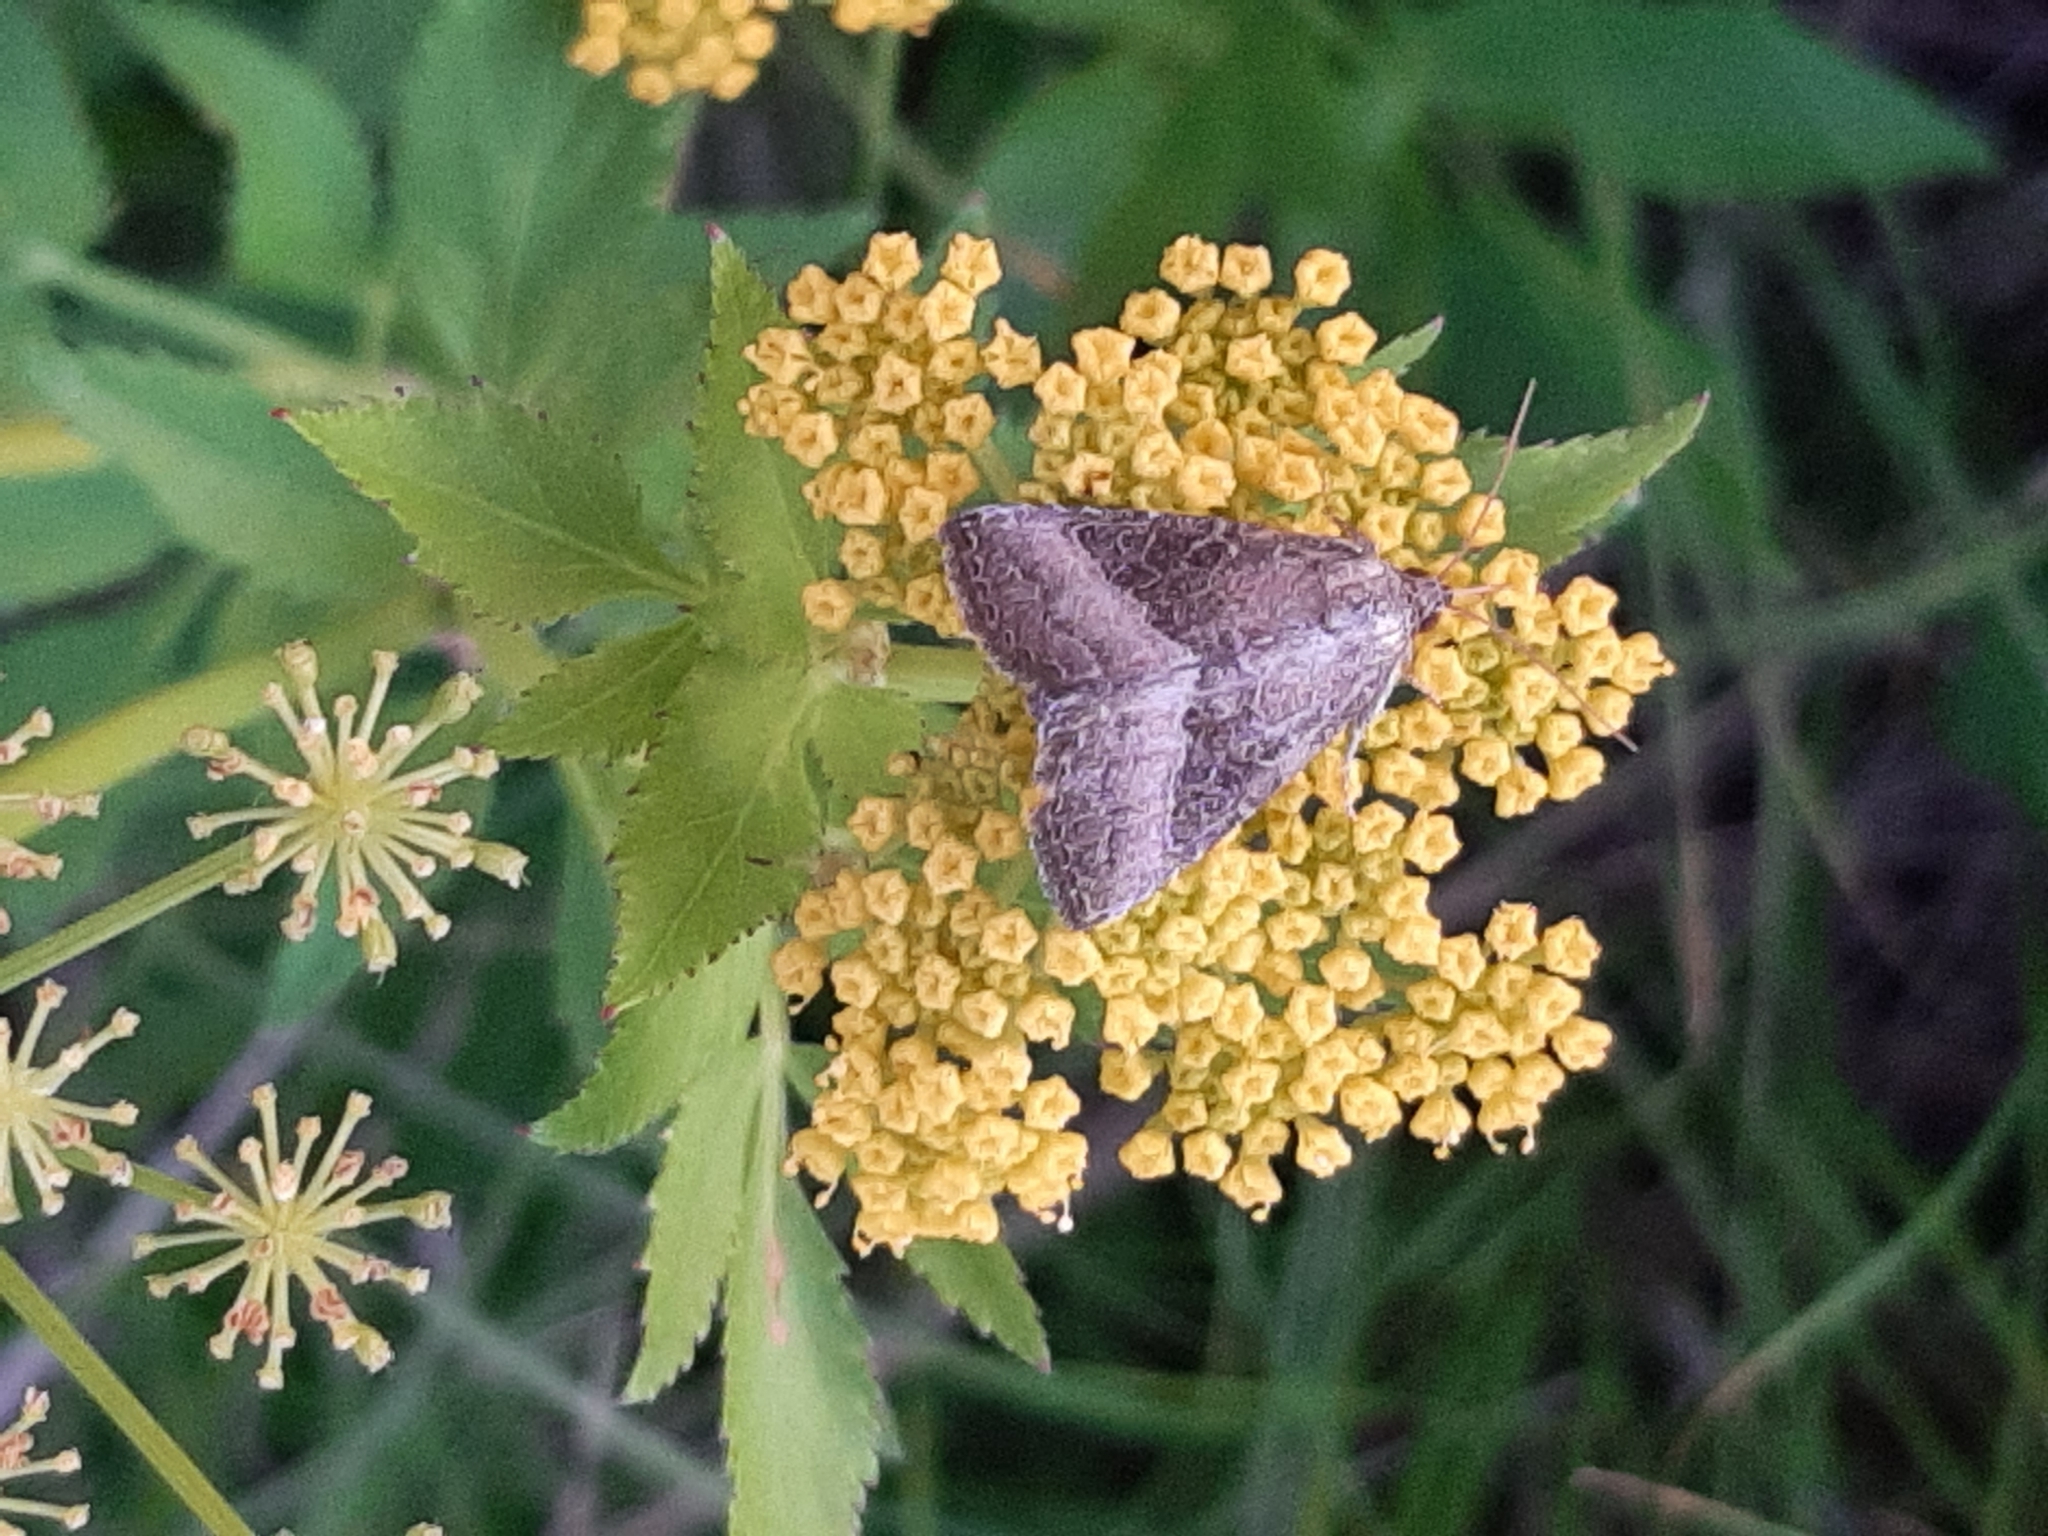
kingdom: Animalia
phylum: Arthropoda
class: Insecta
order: Lepidoptera
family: Noctuidae
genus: Ogdoconta
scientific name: Ogdoconta cinereola
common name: Common pinkband
